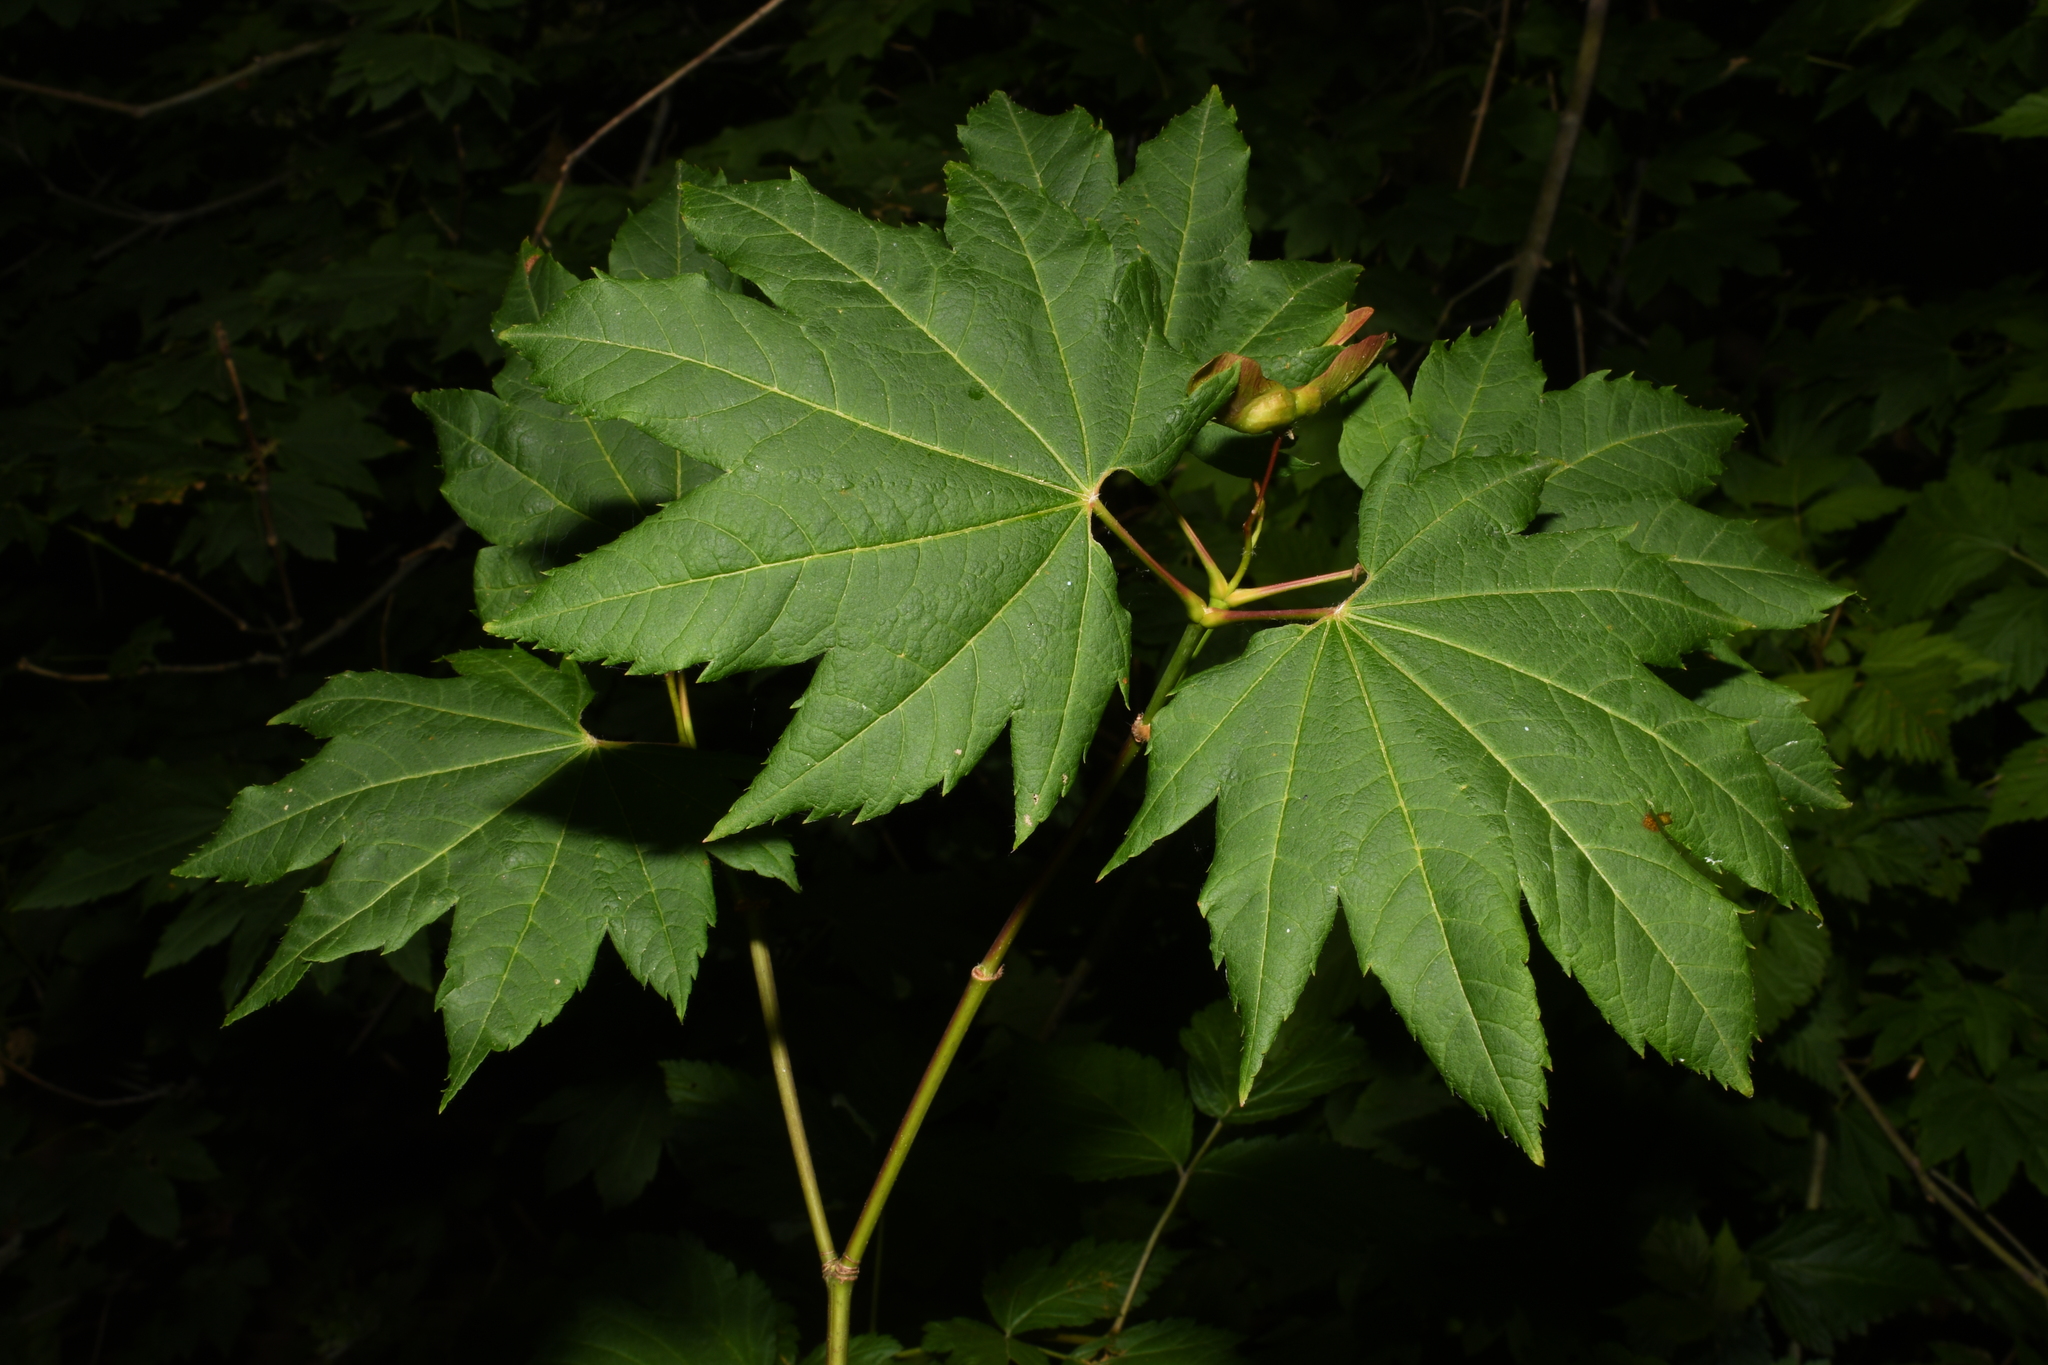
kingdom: Plantae
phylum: Tracheophyta
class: Magnoliopsida
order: Sapindales
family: Sapindaceae
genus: Acer
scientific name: Acer circinatum
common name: Vine maple
